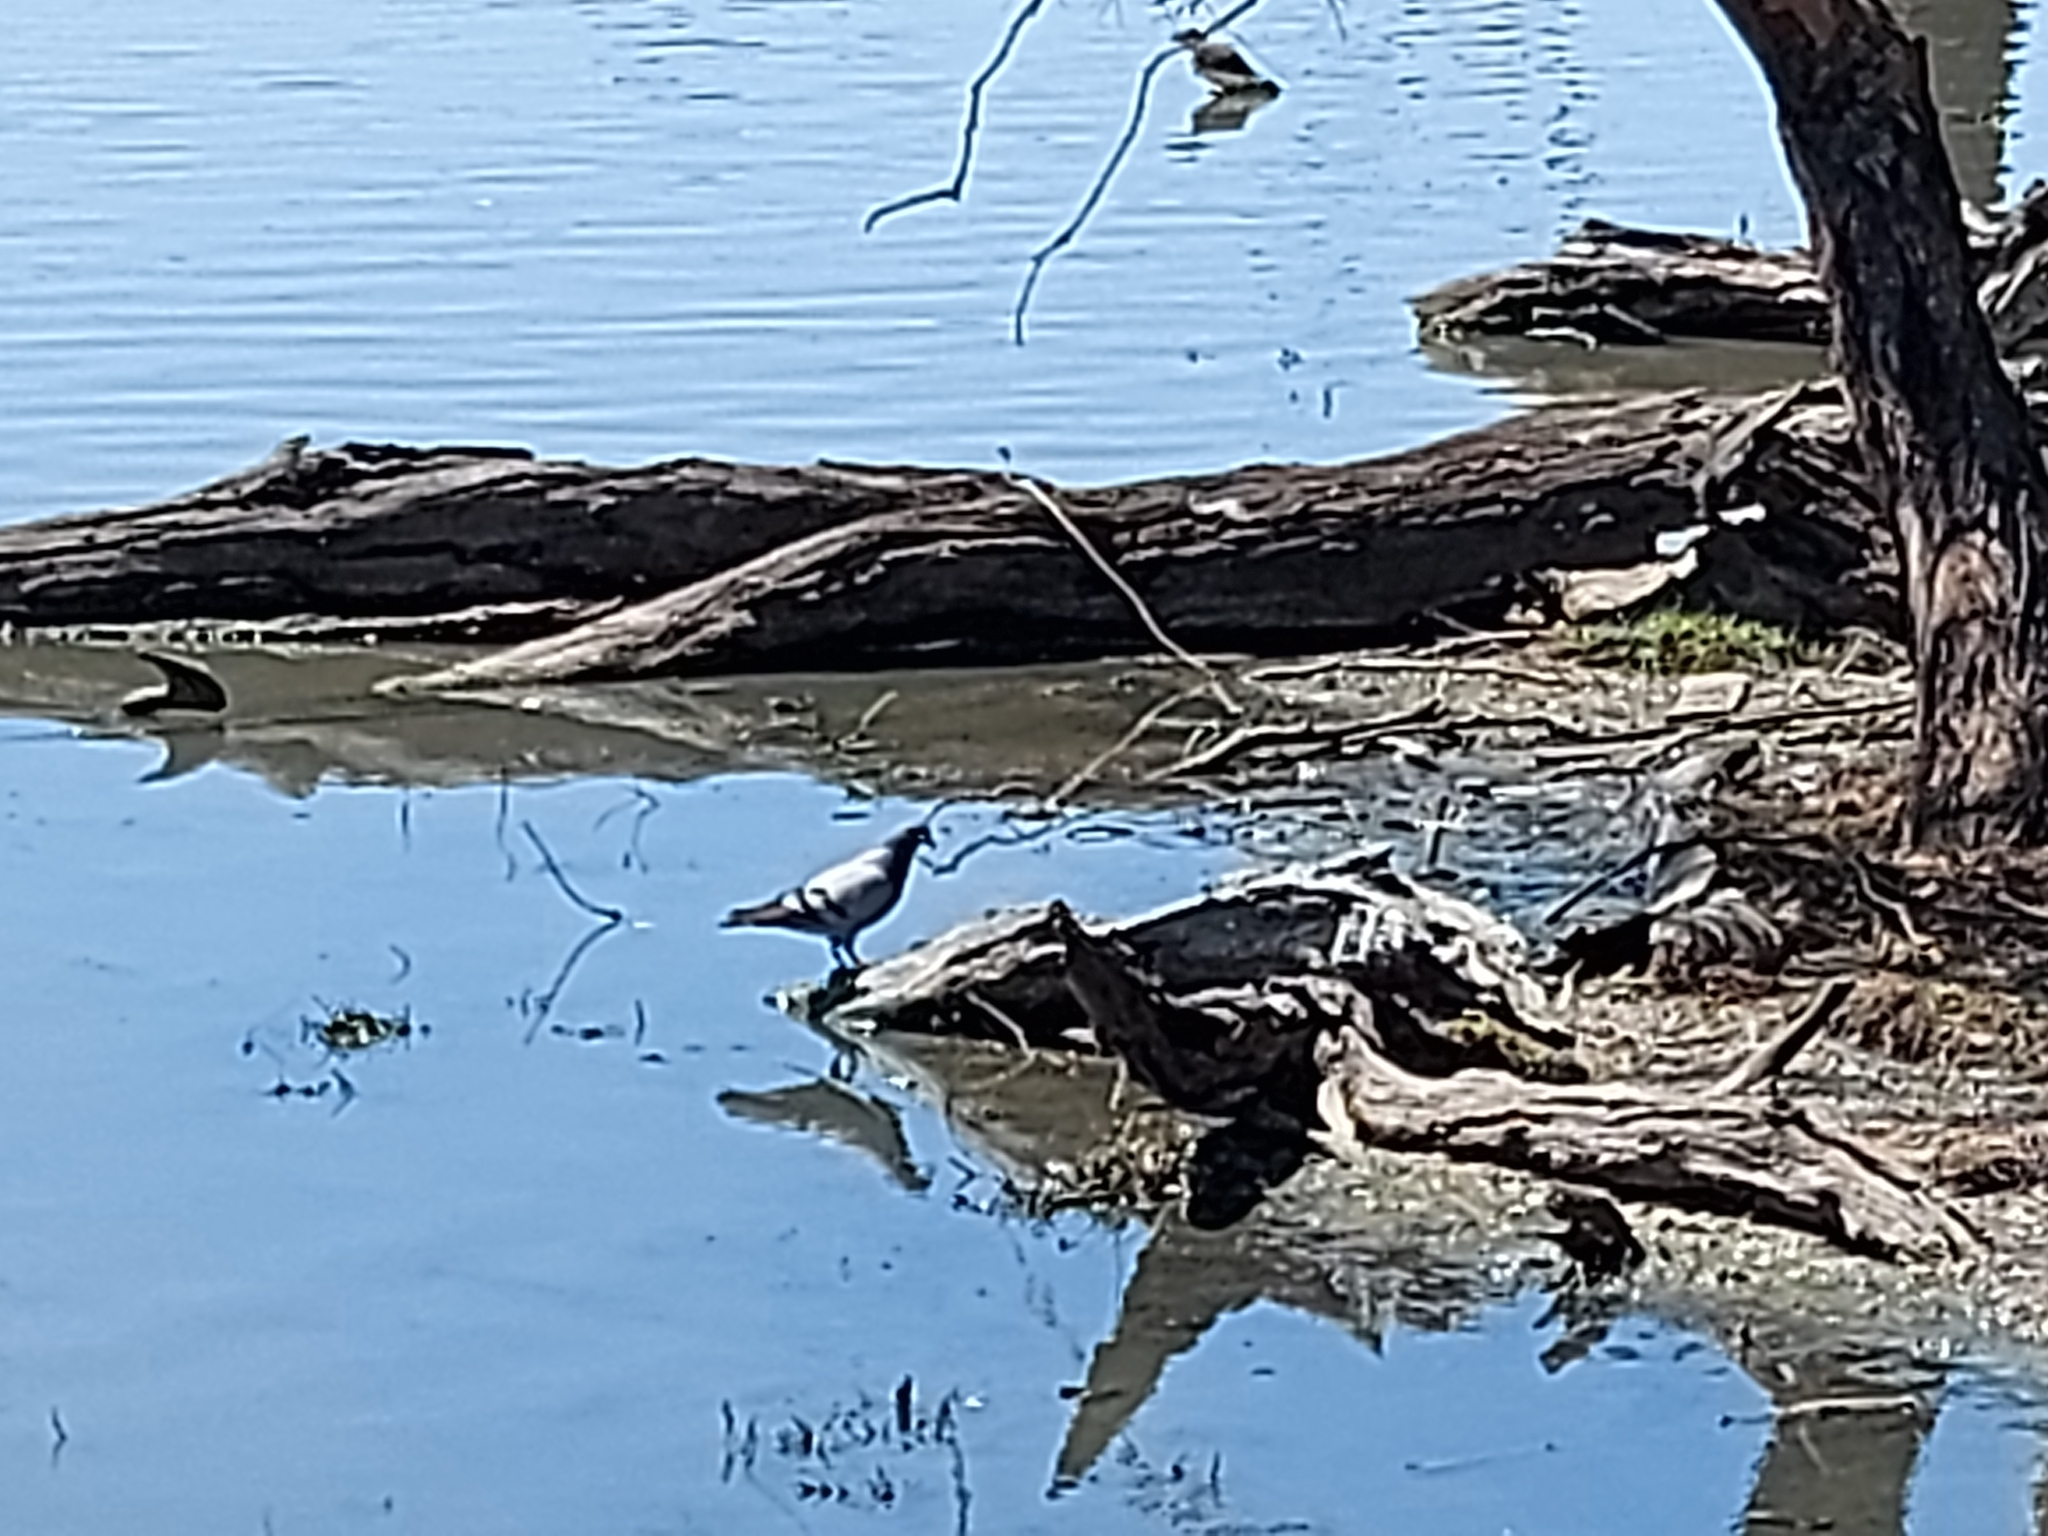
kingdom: Animalia
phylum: Chordata
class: Aves
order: Columbiformes
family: Columbidae
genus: Columba
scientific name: Columba livia
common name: Rock pigeon
